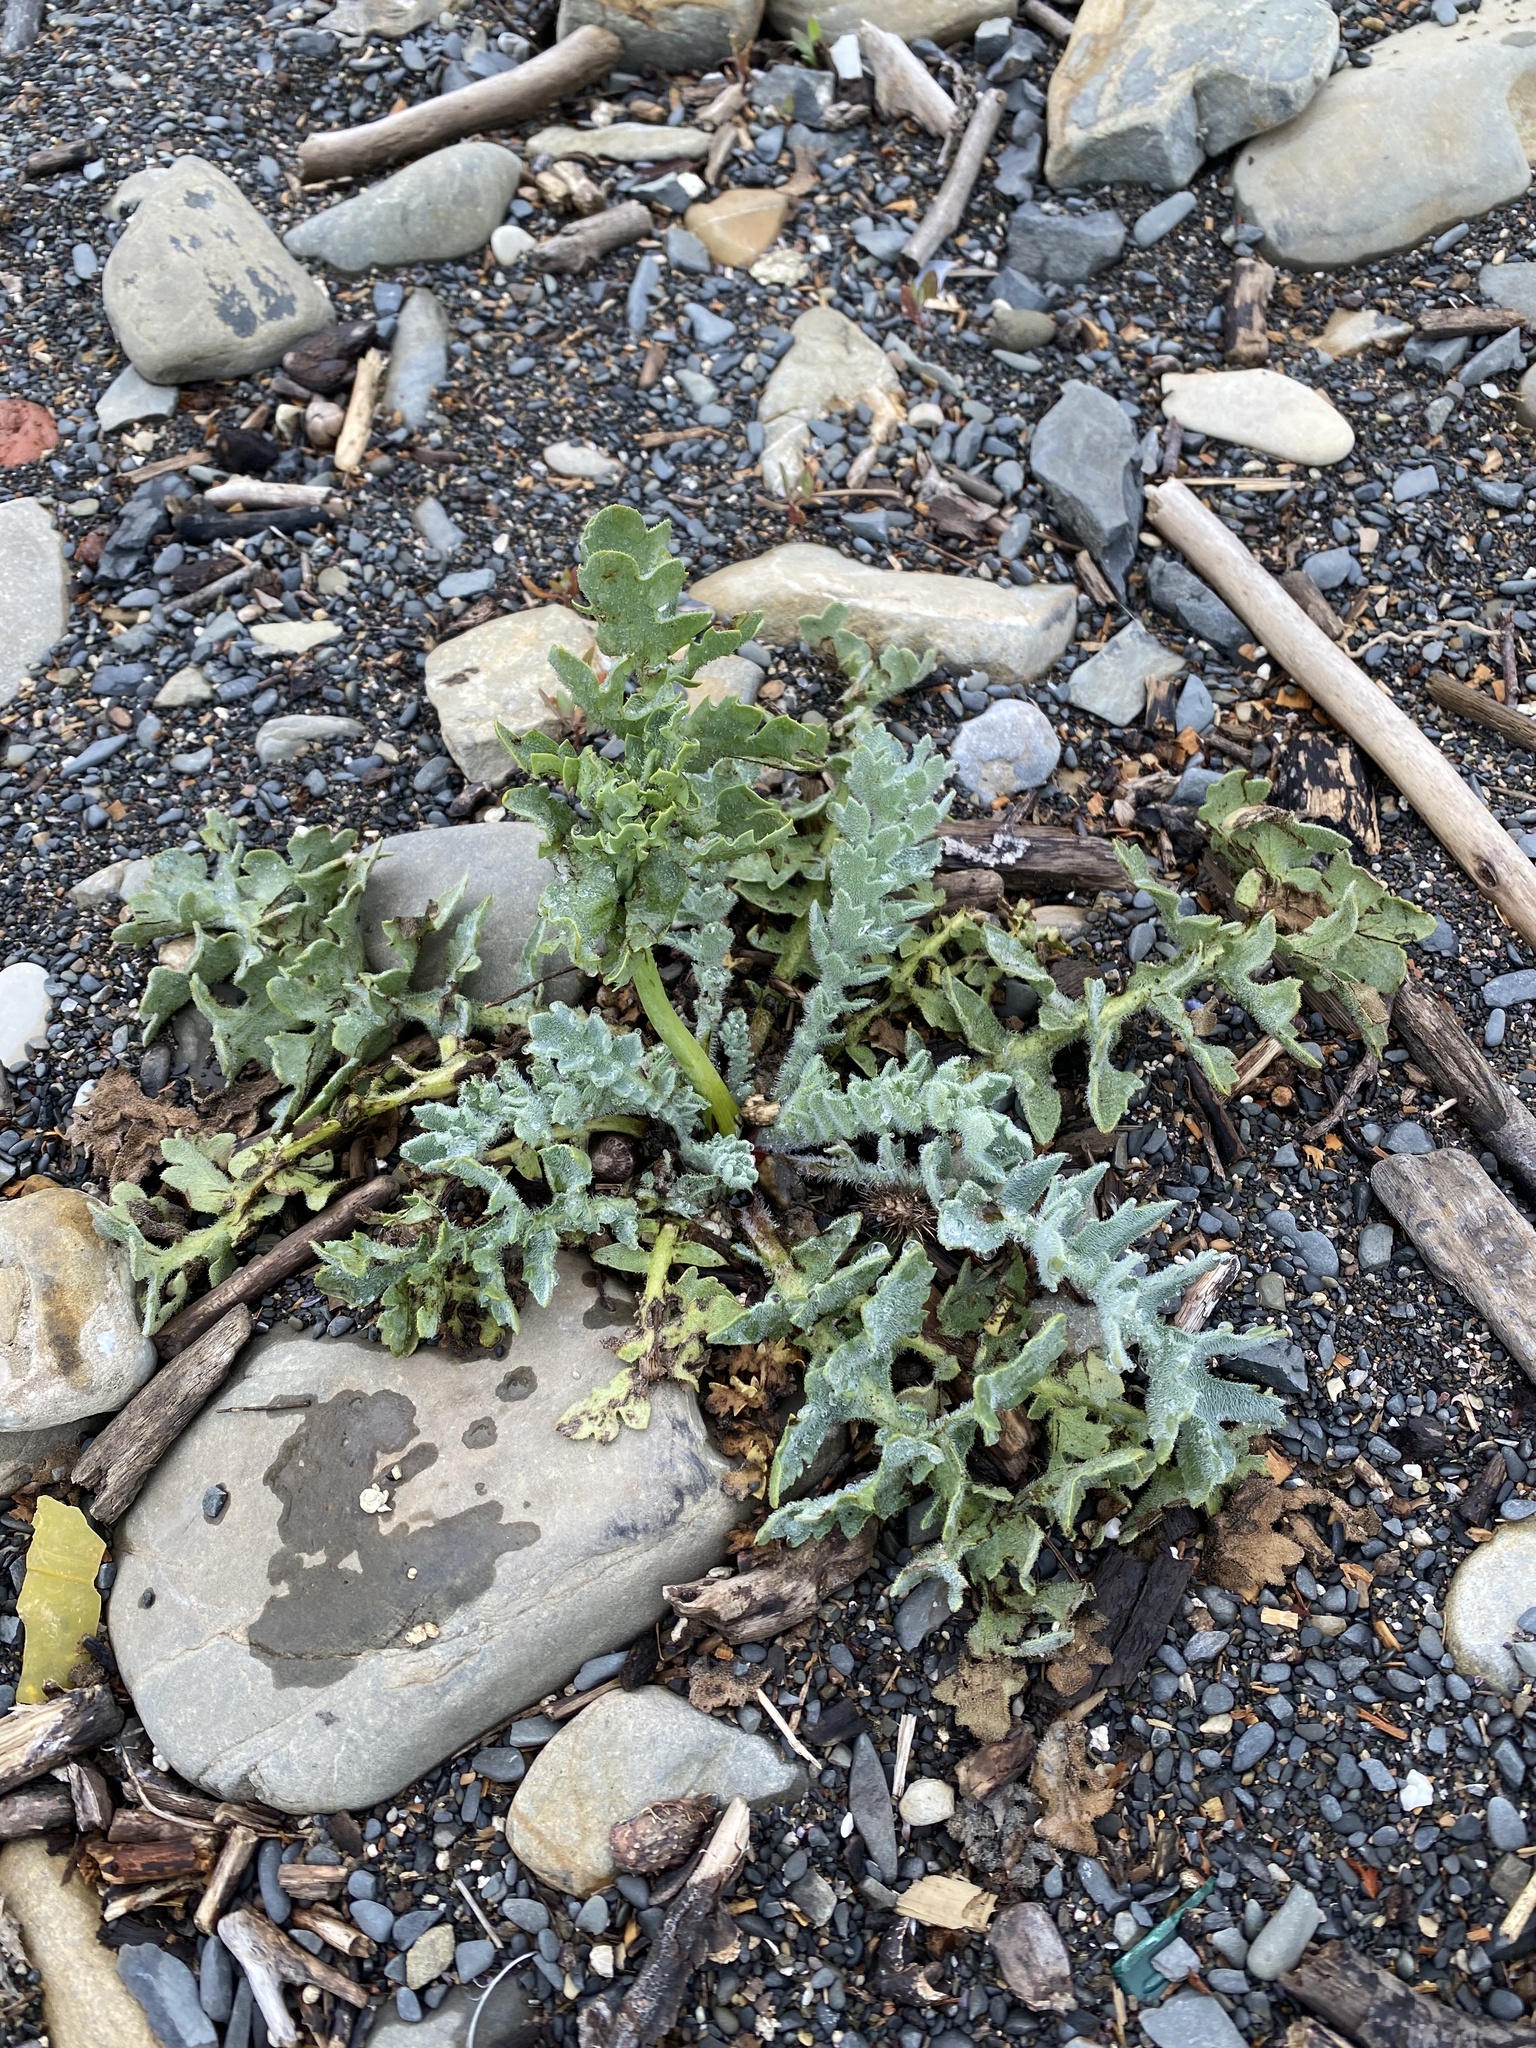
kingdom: Plantae
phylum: Tracheophyta
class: Magnoliopsida
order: Ranunculales
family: Papaveraceae
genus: Glaucium
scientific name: Glaucium flavum
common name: Yellow horned-poppy
